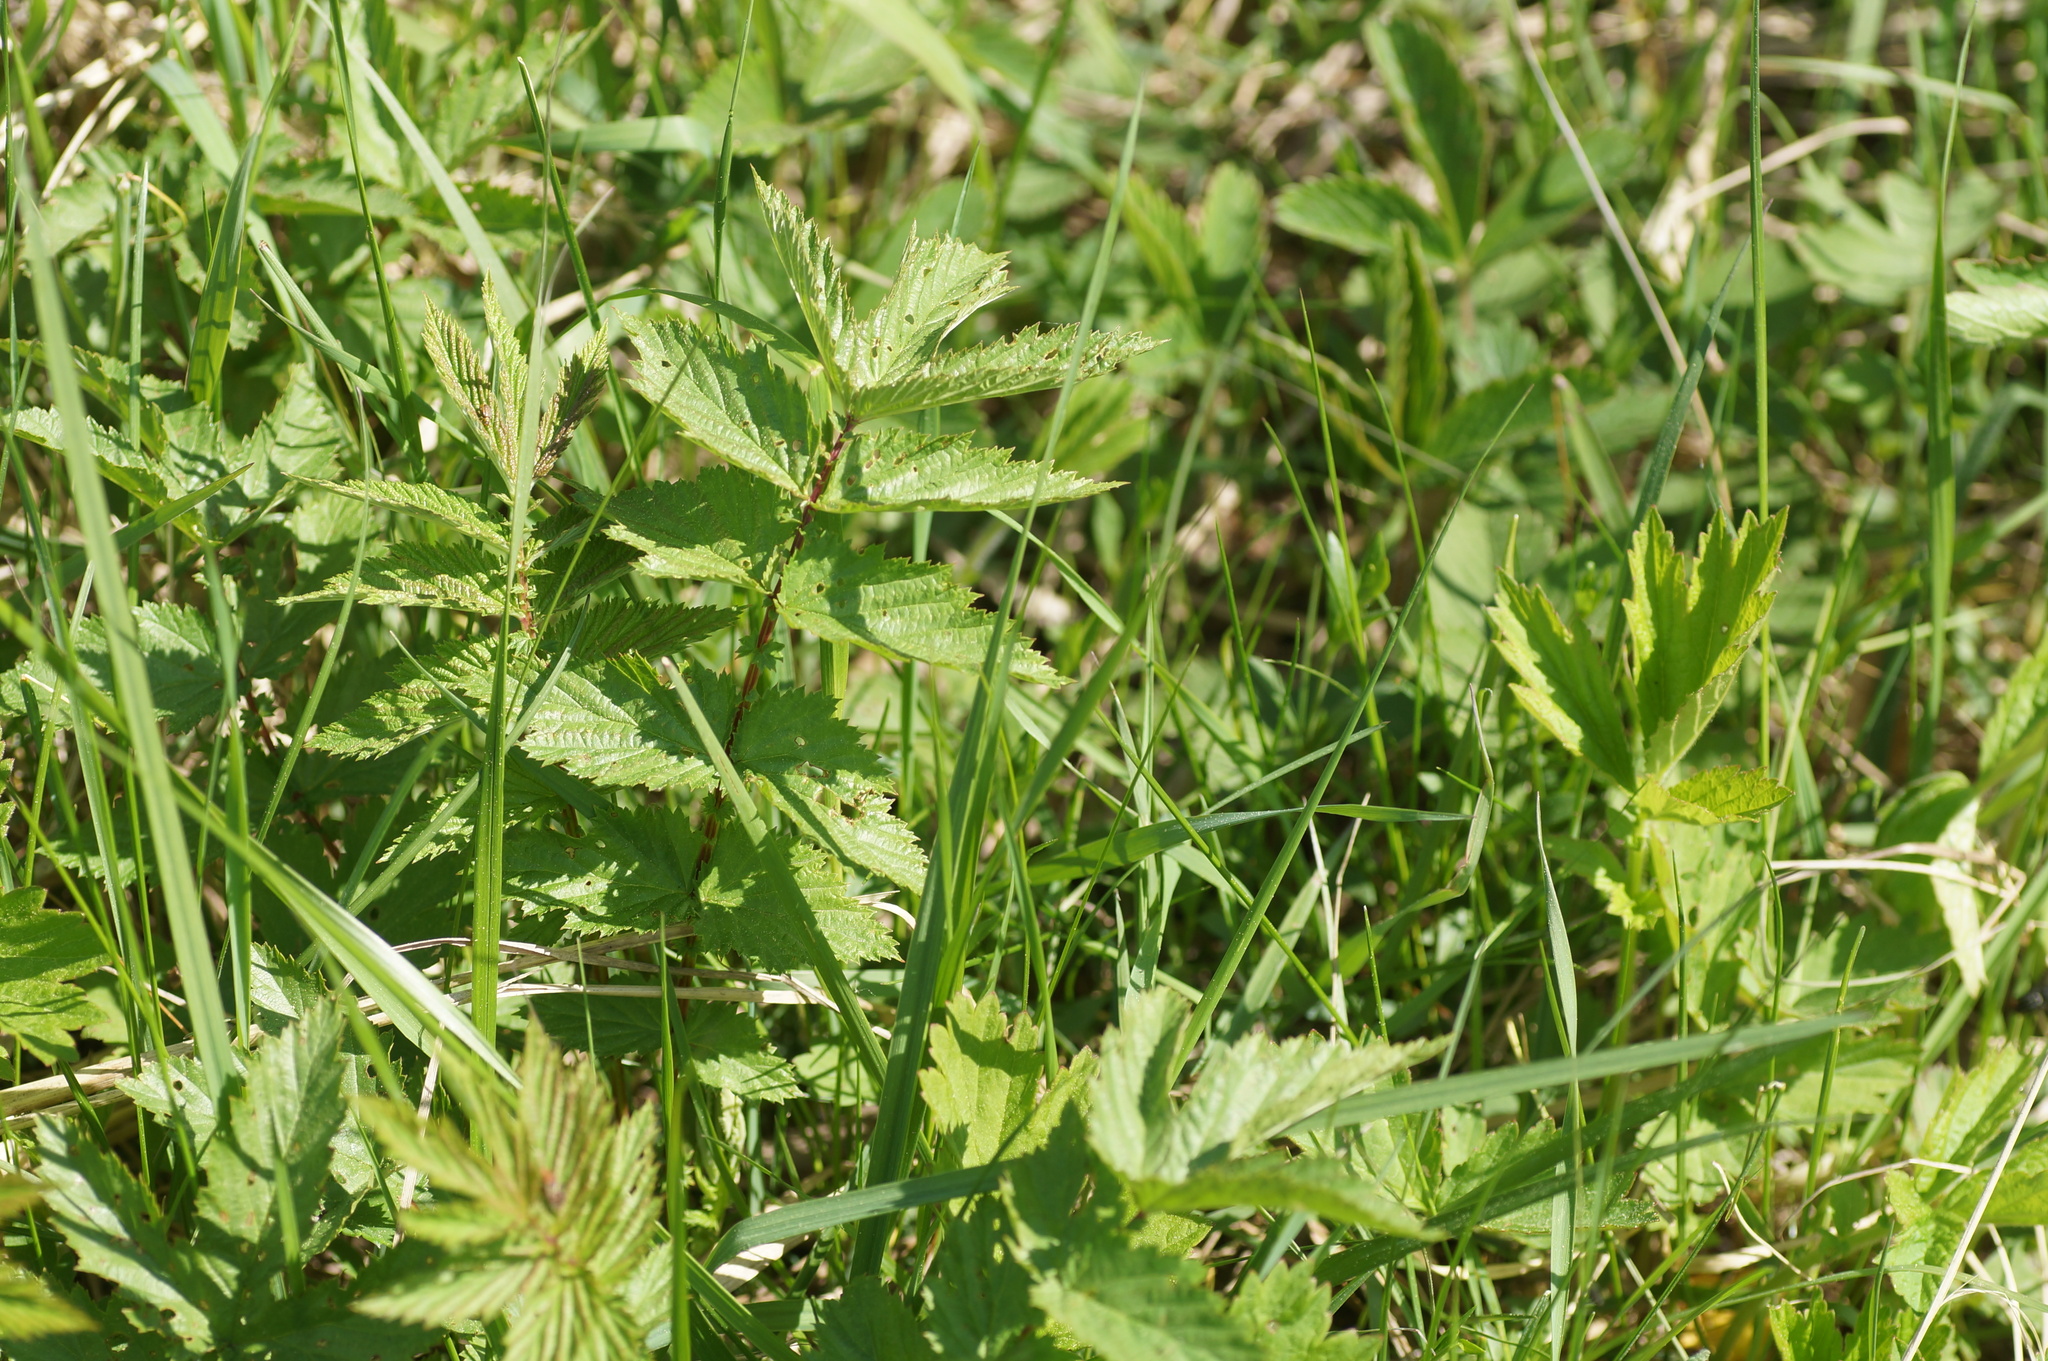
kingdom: Plantae
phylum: Tracheophyta
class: Magnoliopsida
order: Rosales
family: Rosaceae
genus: Filipendula
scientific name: Filipendula ulmaria
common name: Meadowsweet
